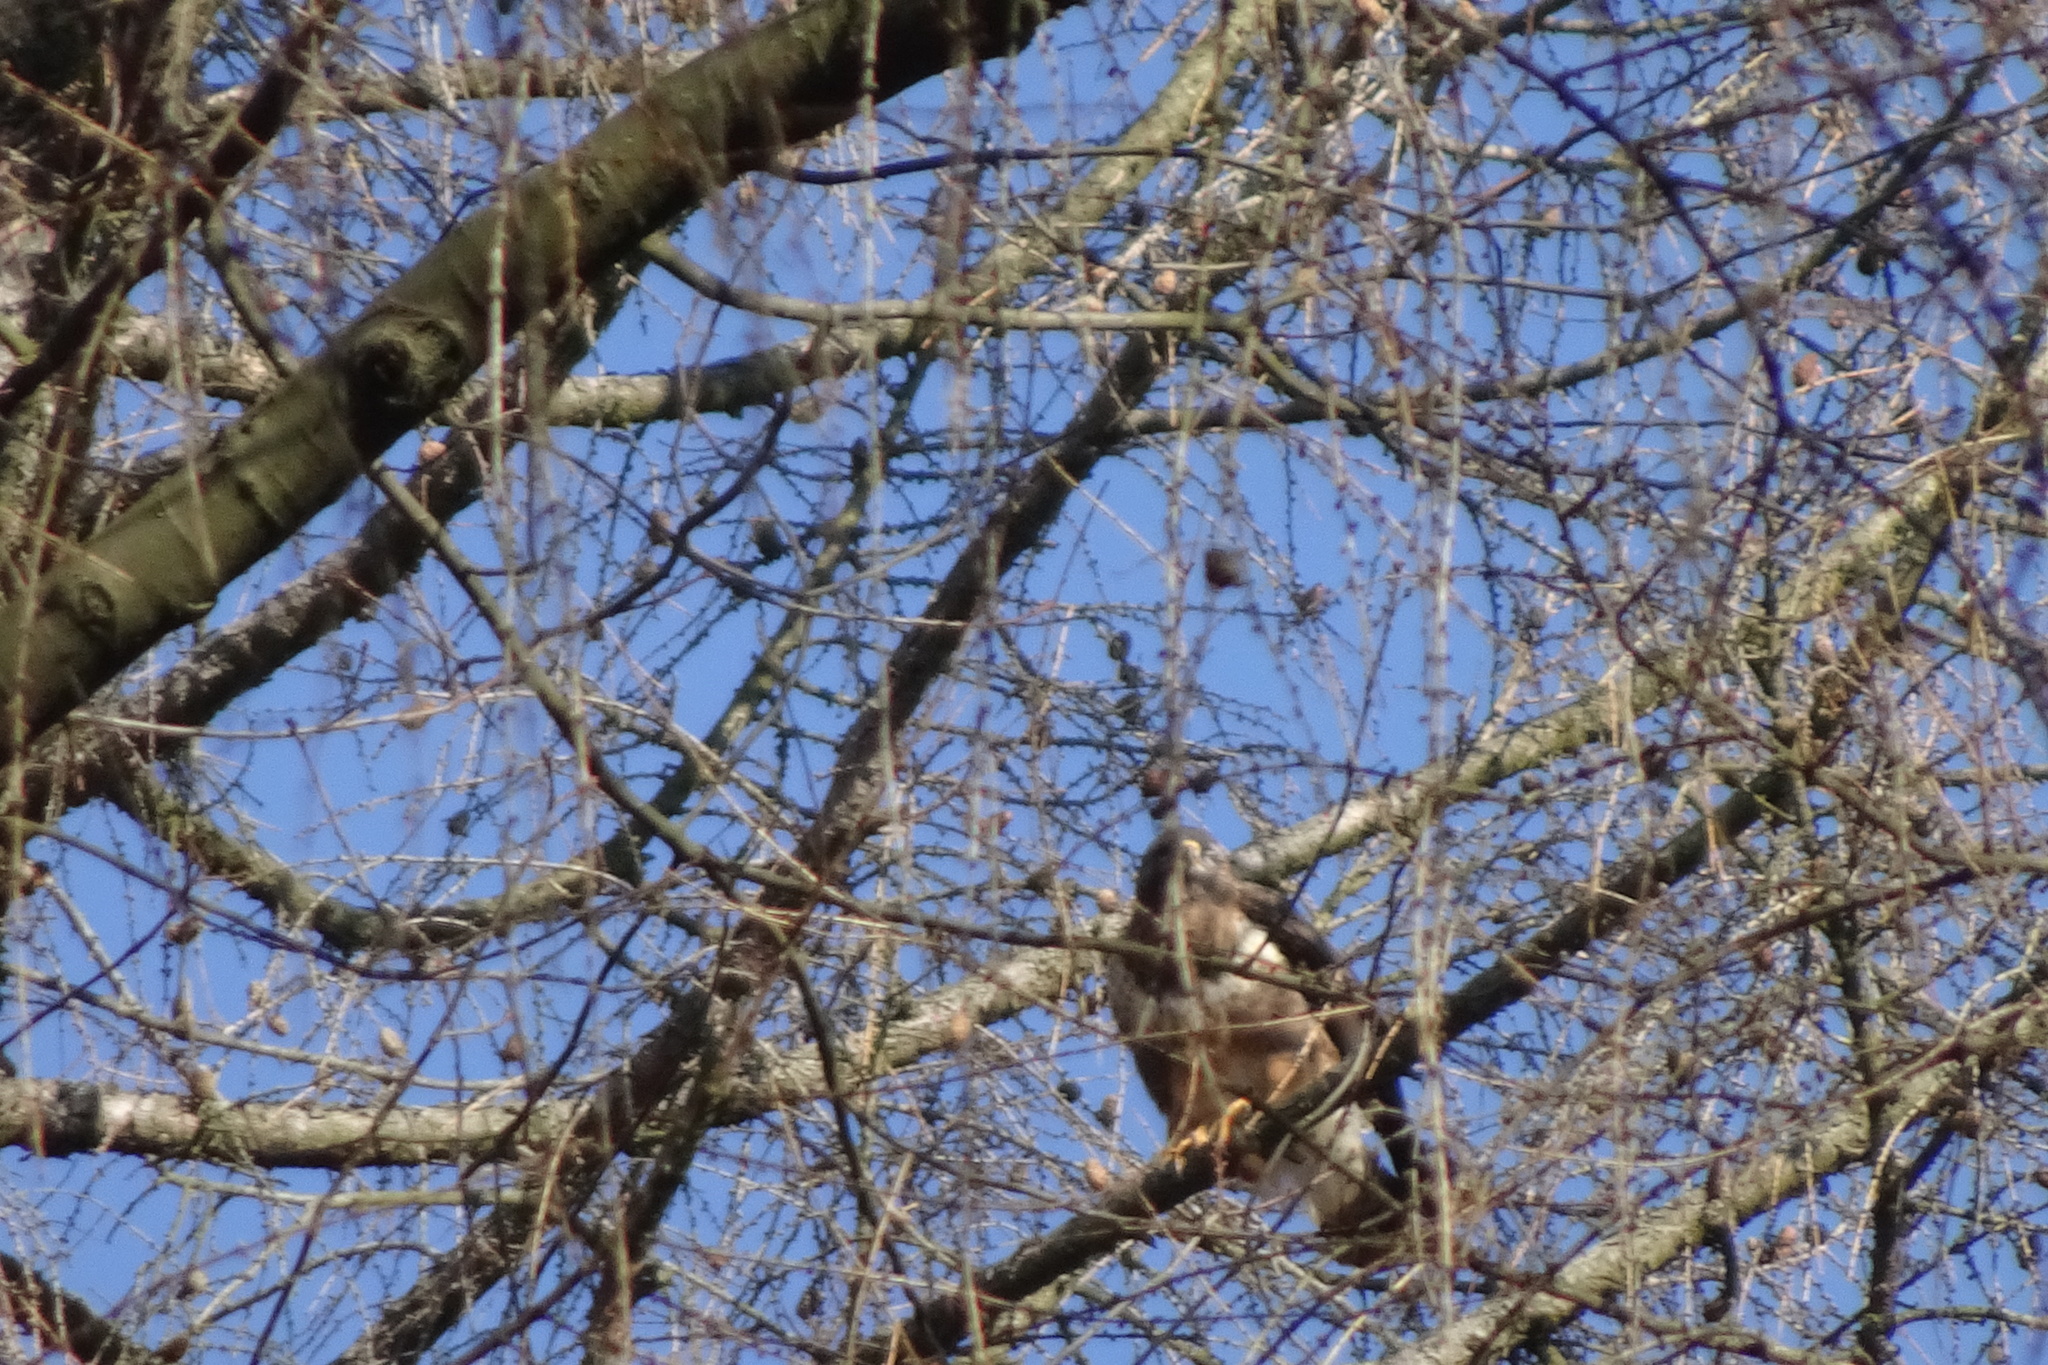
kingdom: Animalia
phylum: Chordata
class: Aves
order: Accipitriformes
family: Accipitridae
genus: Buteo
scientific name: Buteo buteo
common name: Common buzzard
